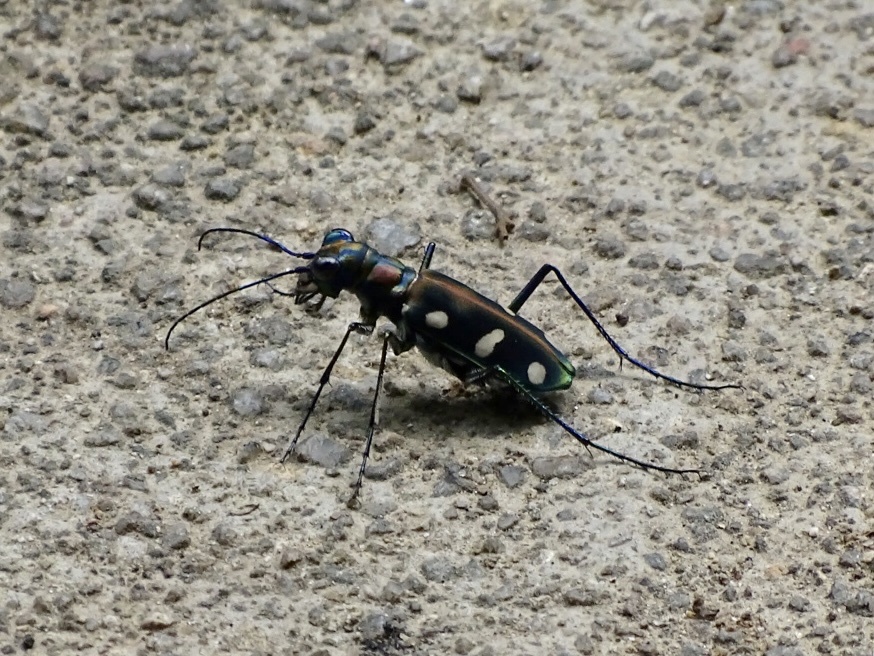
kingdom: Animalia
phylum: Arthropoda
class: Insecta
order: Coleoptera
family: Carabidae
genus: Cicindela
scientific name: Cicindela juxtata
